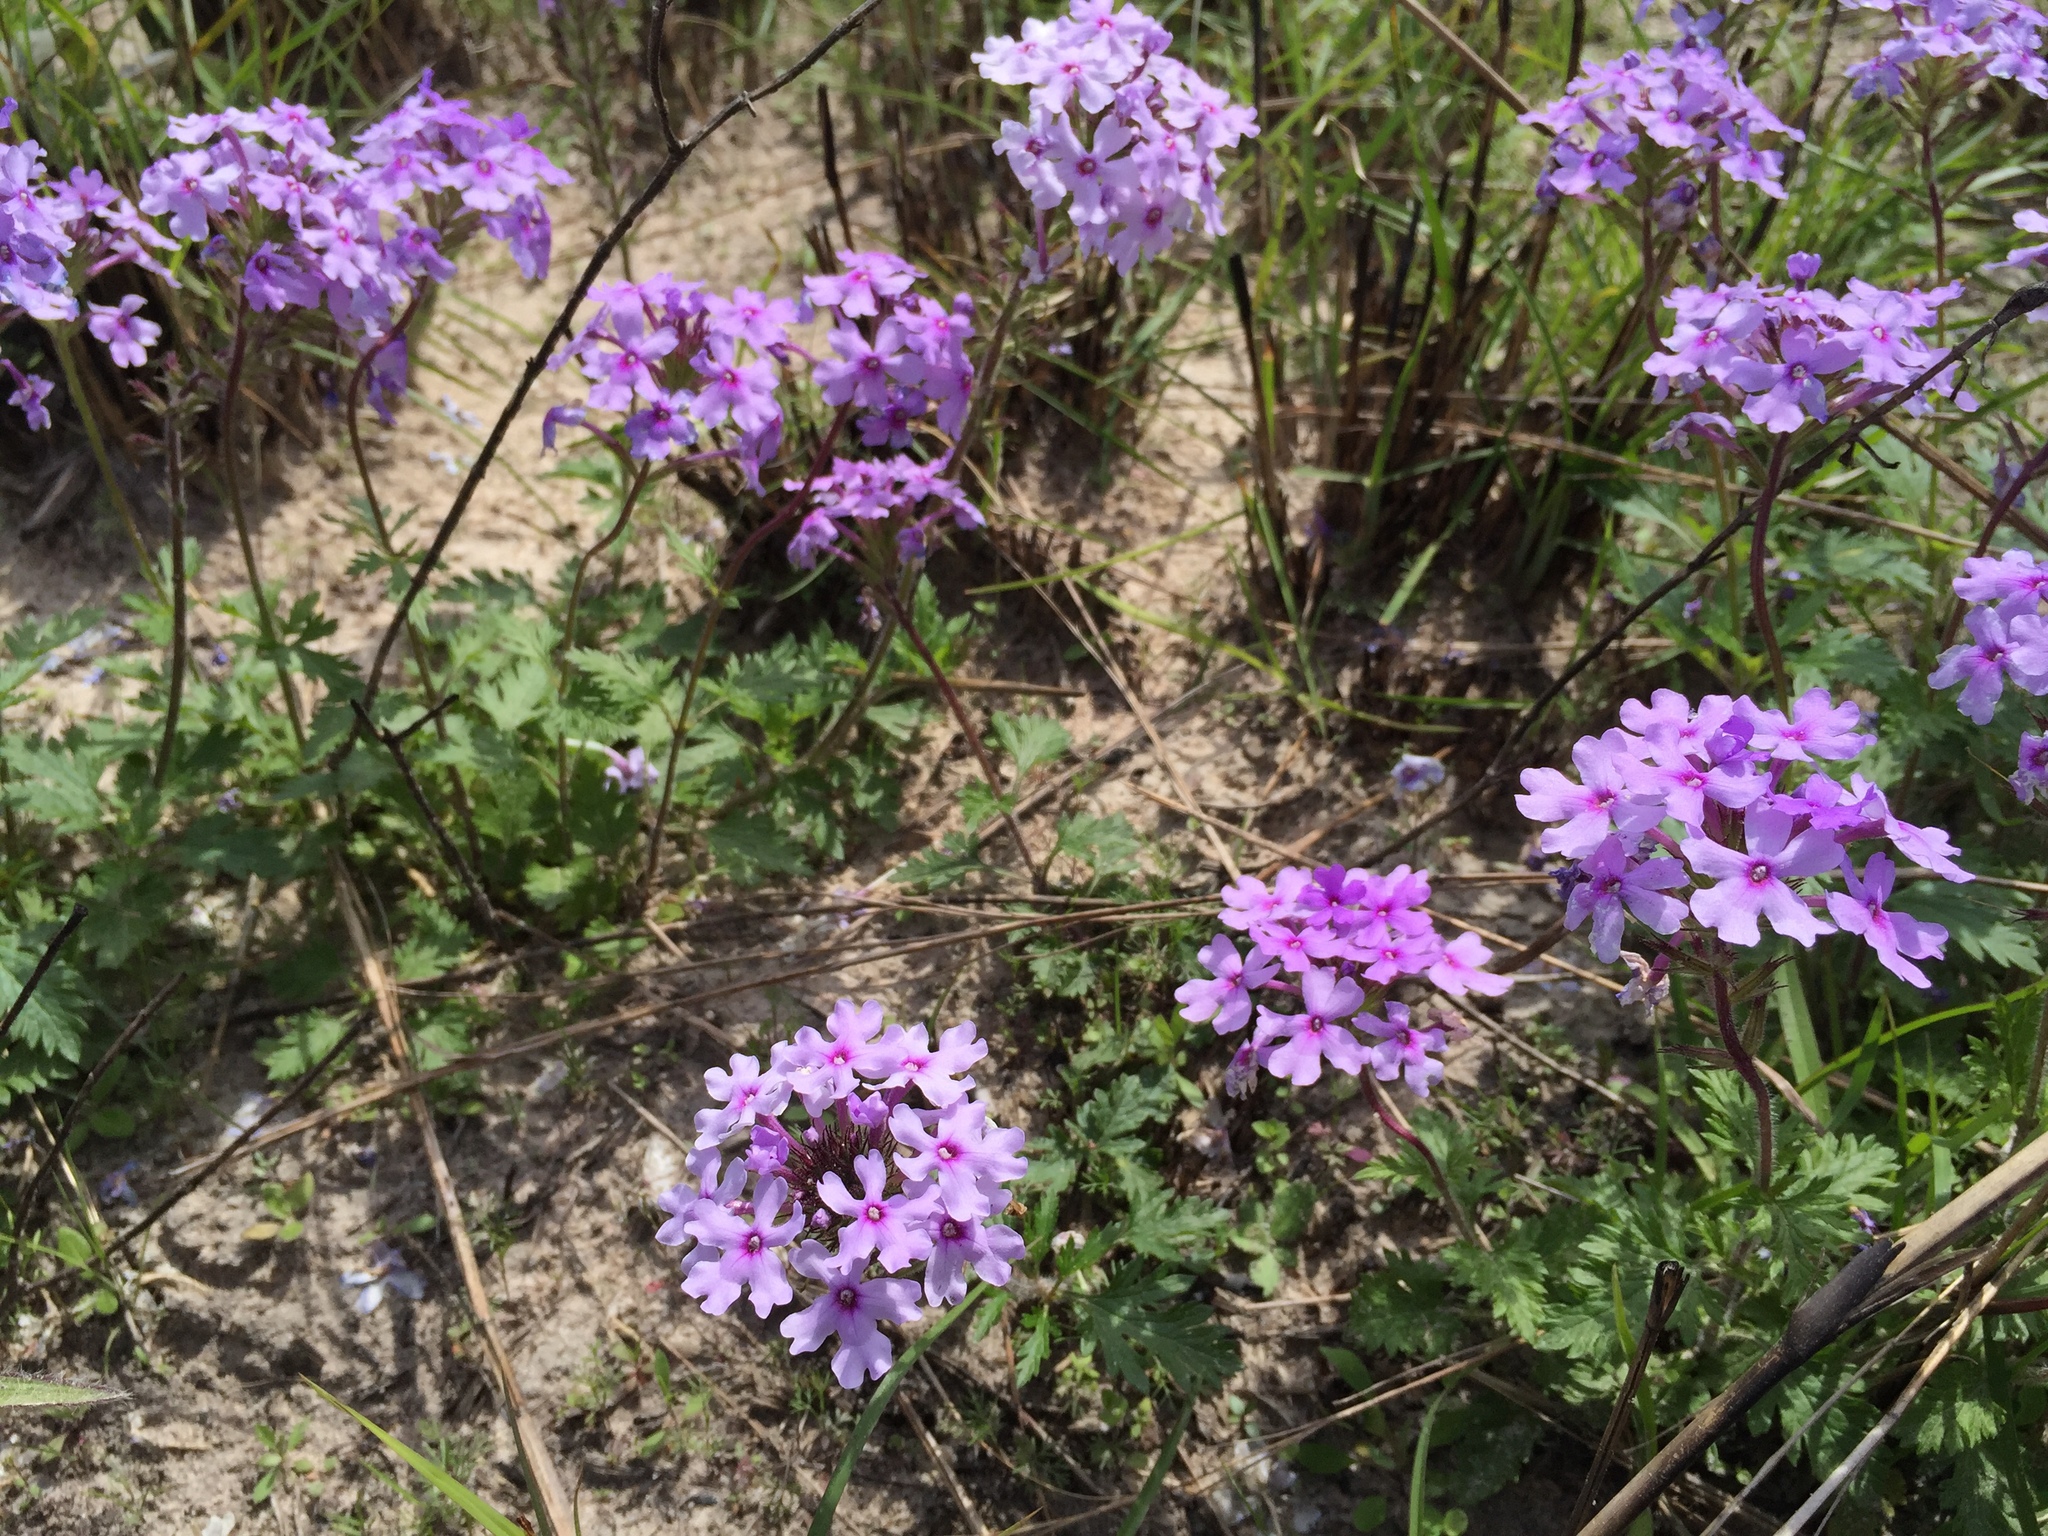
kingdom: Plantae
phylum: Tracheophyta
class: Magnoliopsida
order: Lamiales
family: Verbenaceae
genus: Verbena
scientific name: Verbena canadensis
